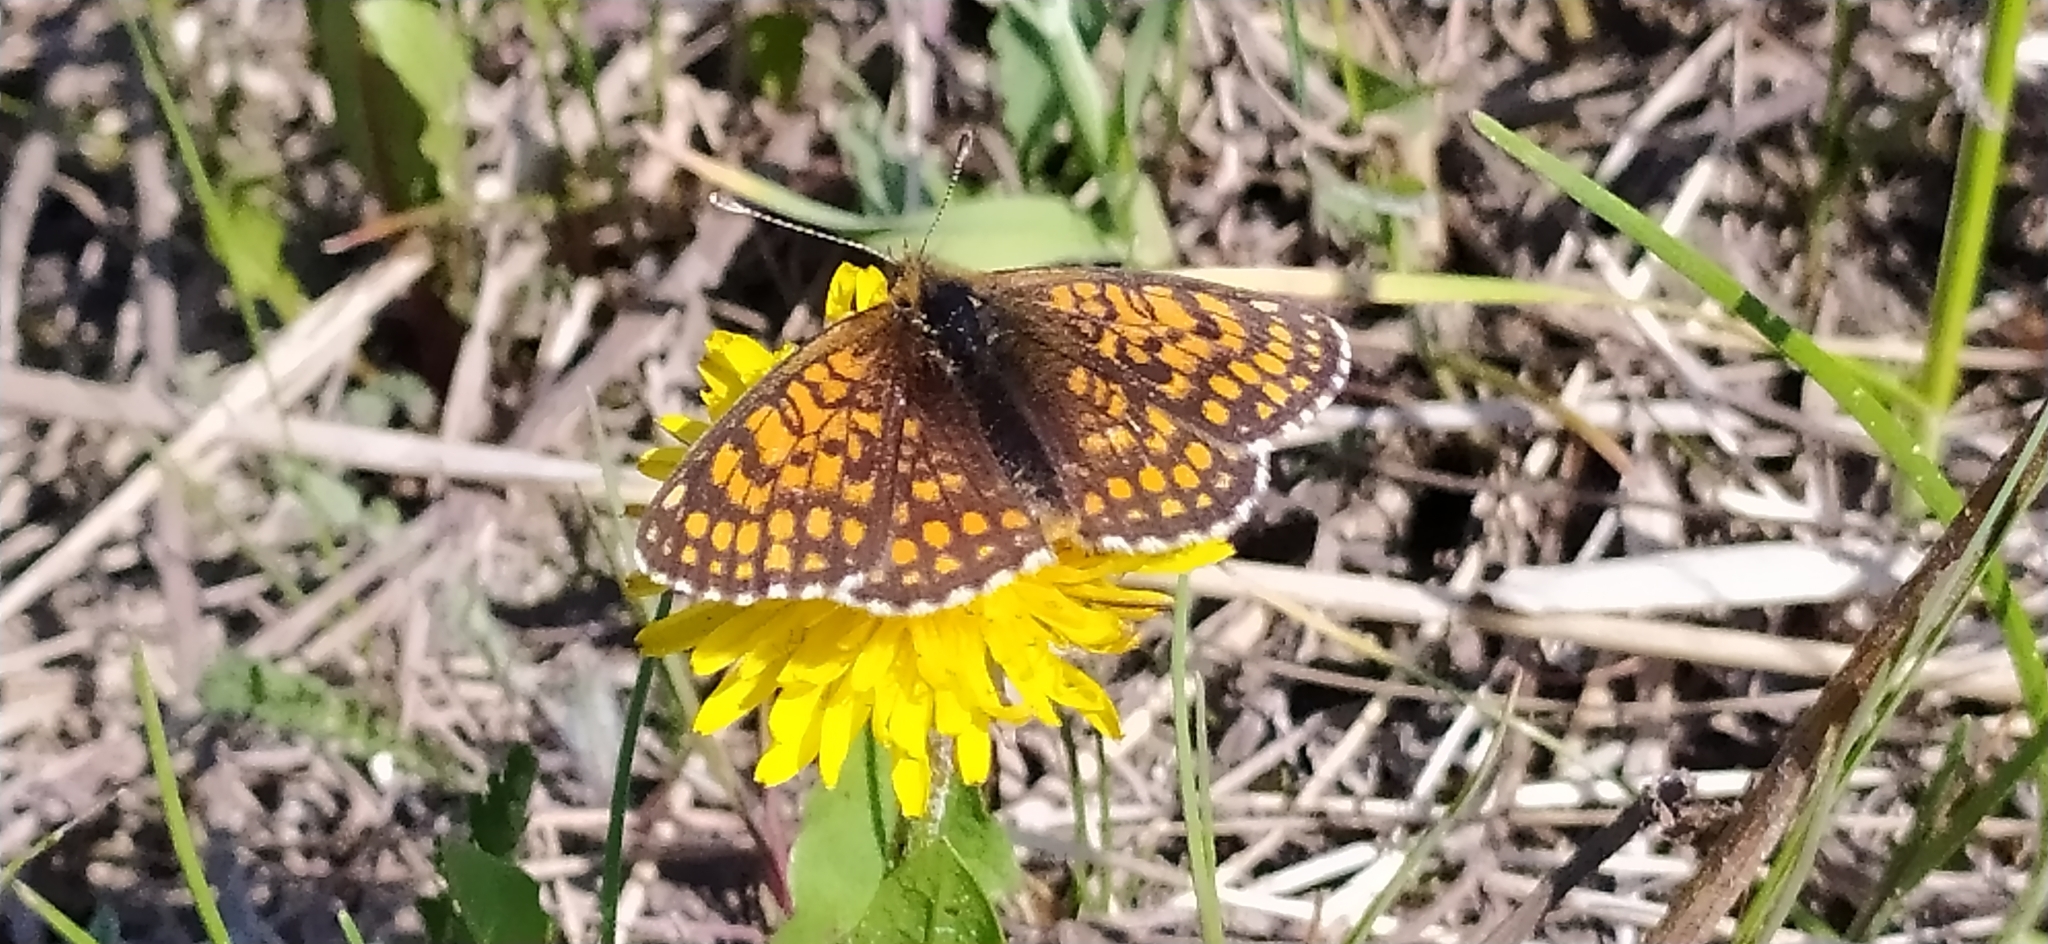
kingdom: Animalia
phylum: Arthropoda
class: Insecta
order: Lepidoptera
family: Nymphalidae
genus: Melitaea
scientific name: Melitaea athalia
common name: Heath fritillary
